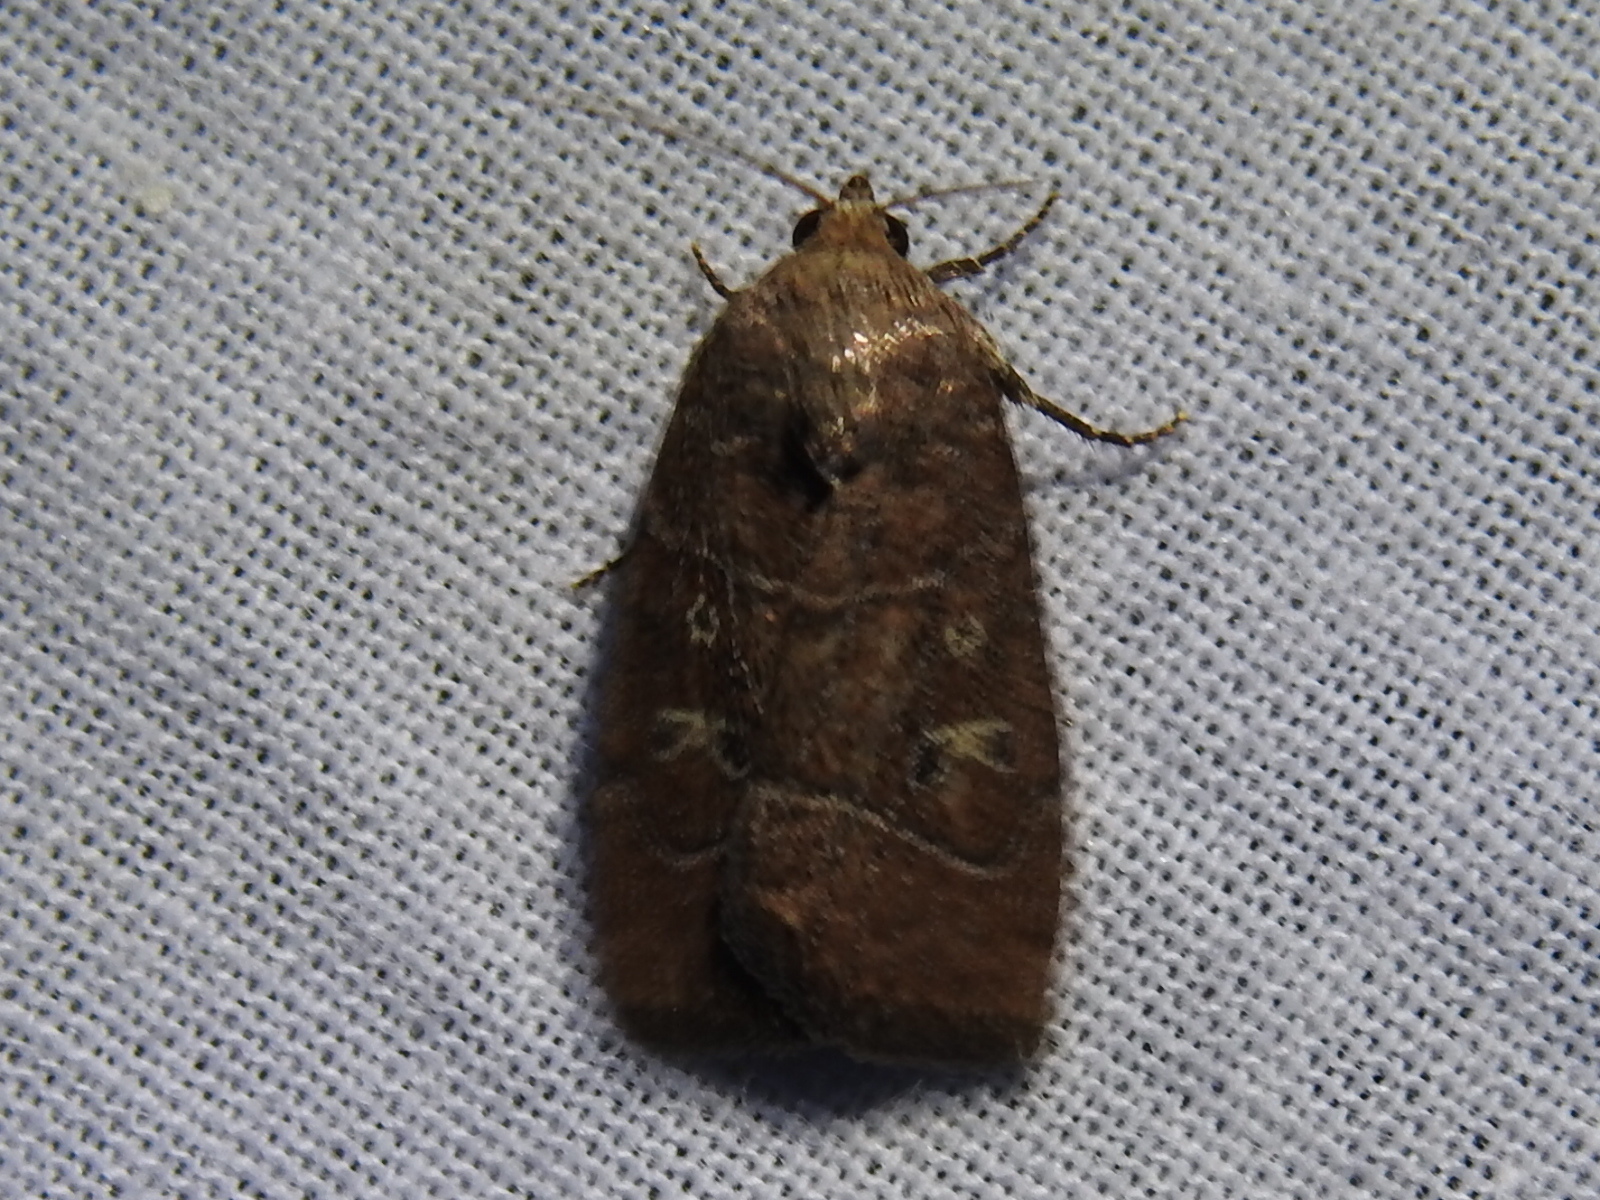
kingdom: Animalia
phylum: Arthropoda
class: Insecta
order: Lepidoptera
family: Noctuidae
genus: Elaphria
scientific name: Elaphria grata
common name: Grateful midget moth
